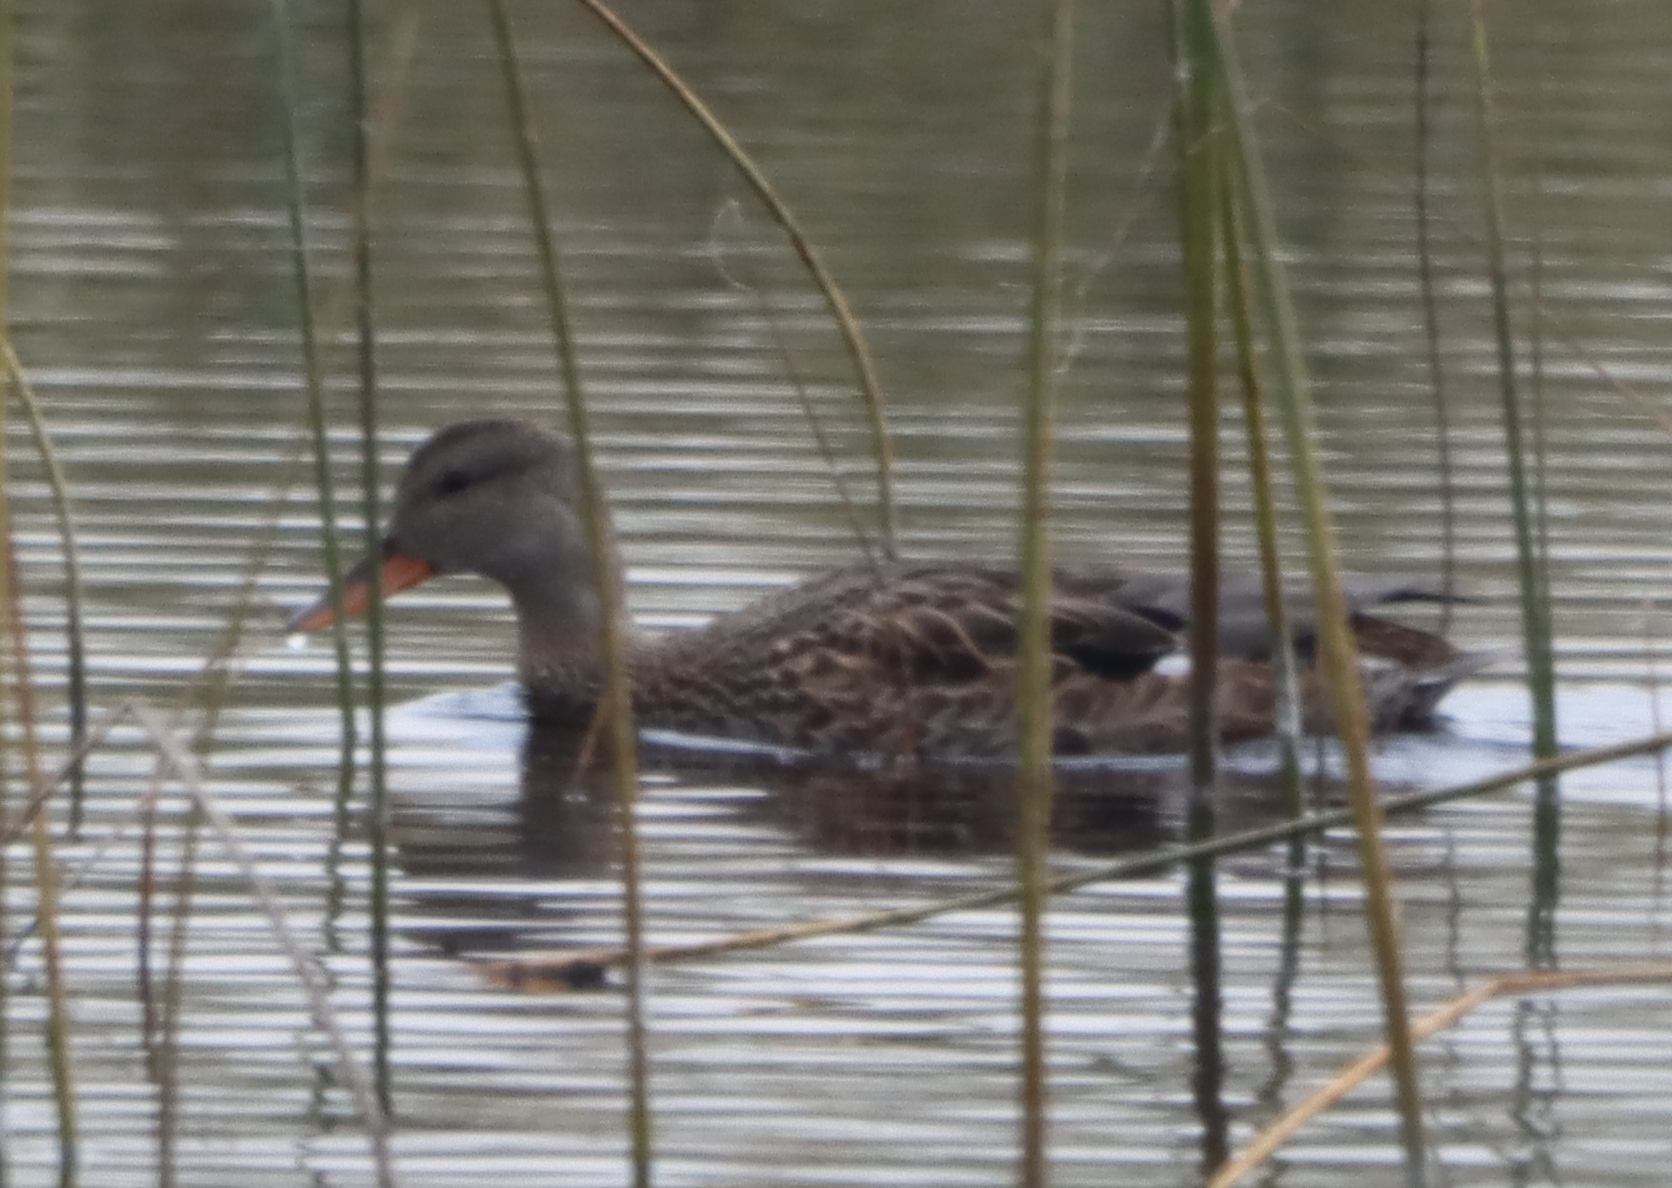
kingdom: Animalia
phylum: Chordata
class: Aves
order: Anseriformes
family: Anatidae
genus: Anas
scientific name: Anas platyrhynchos
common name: Mallard
